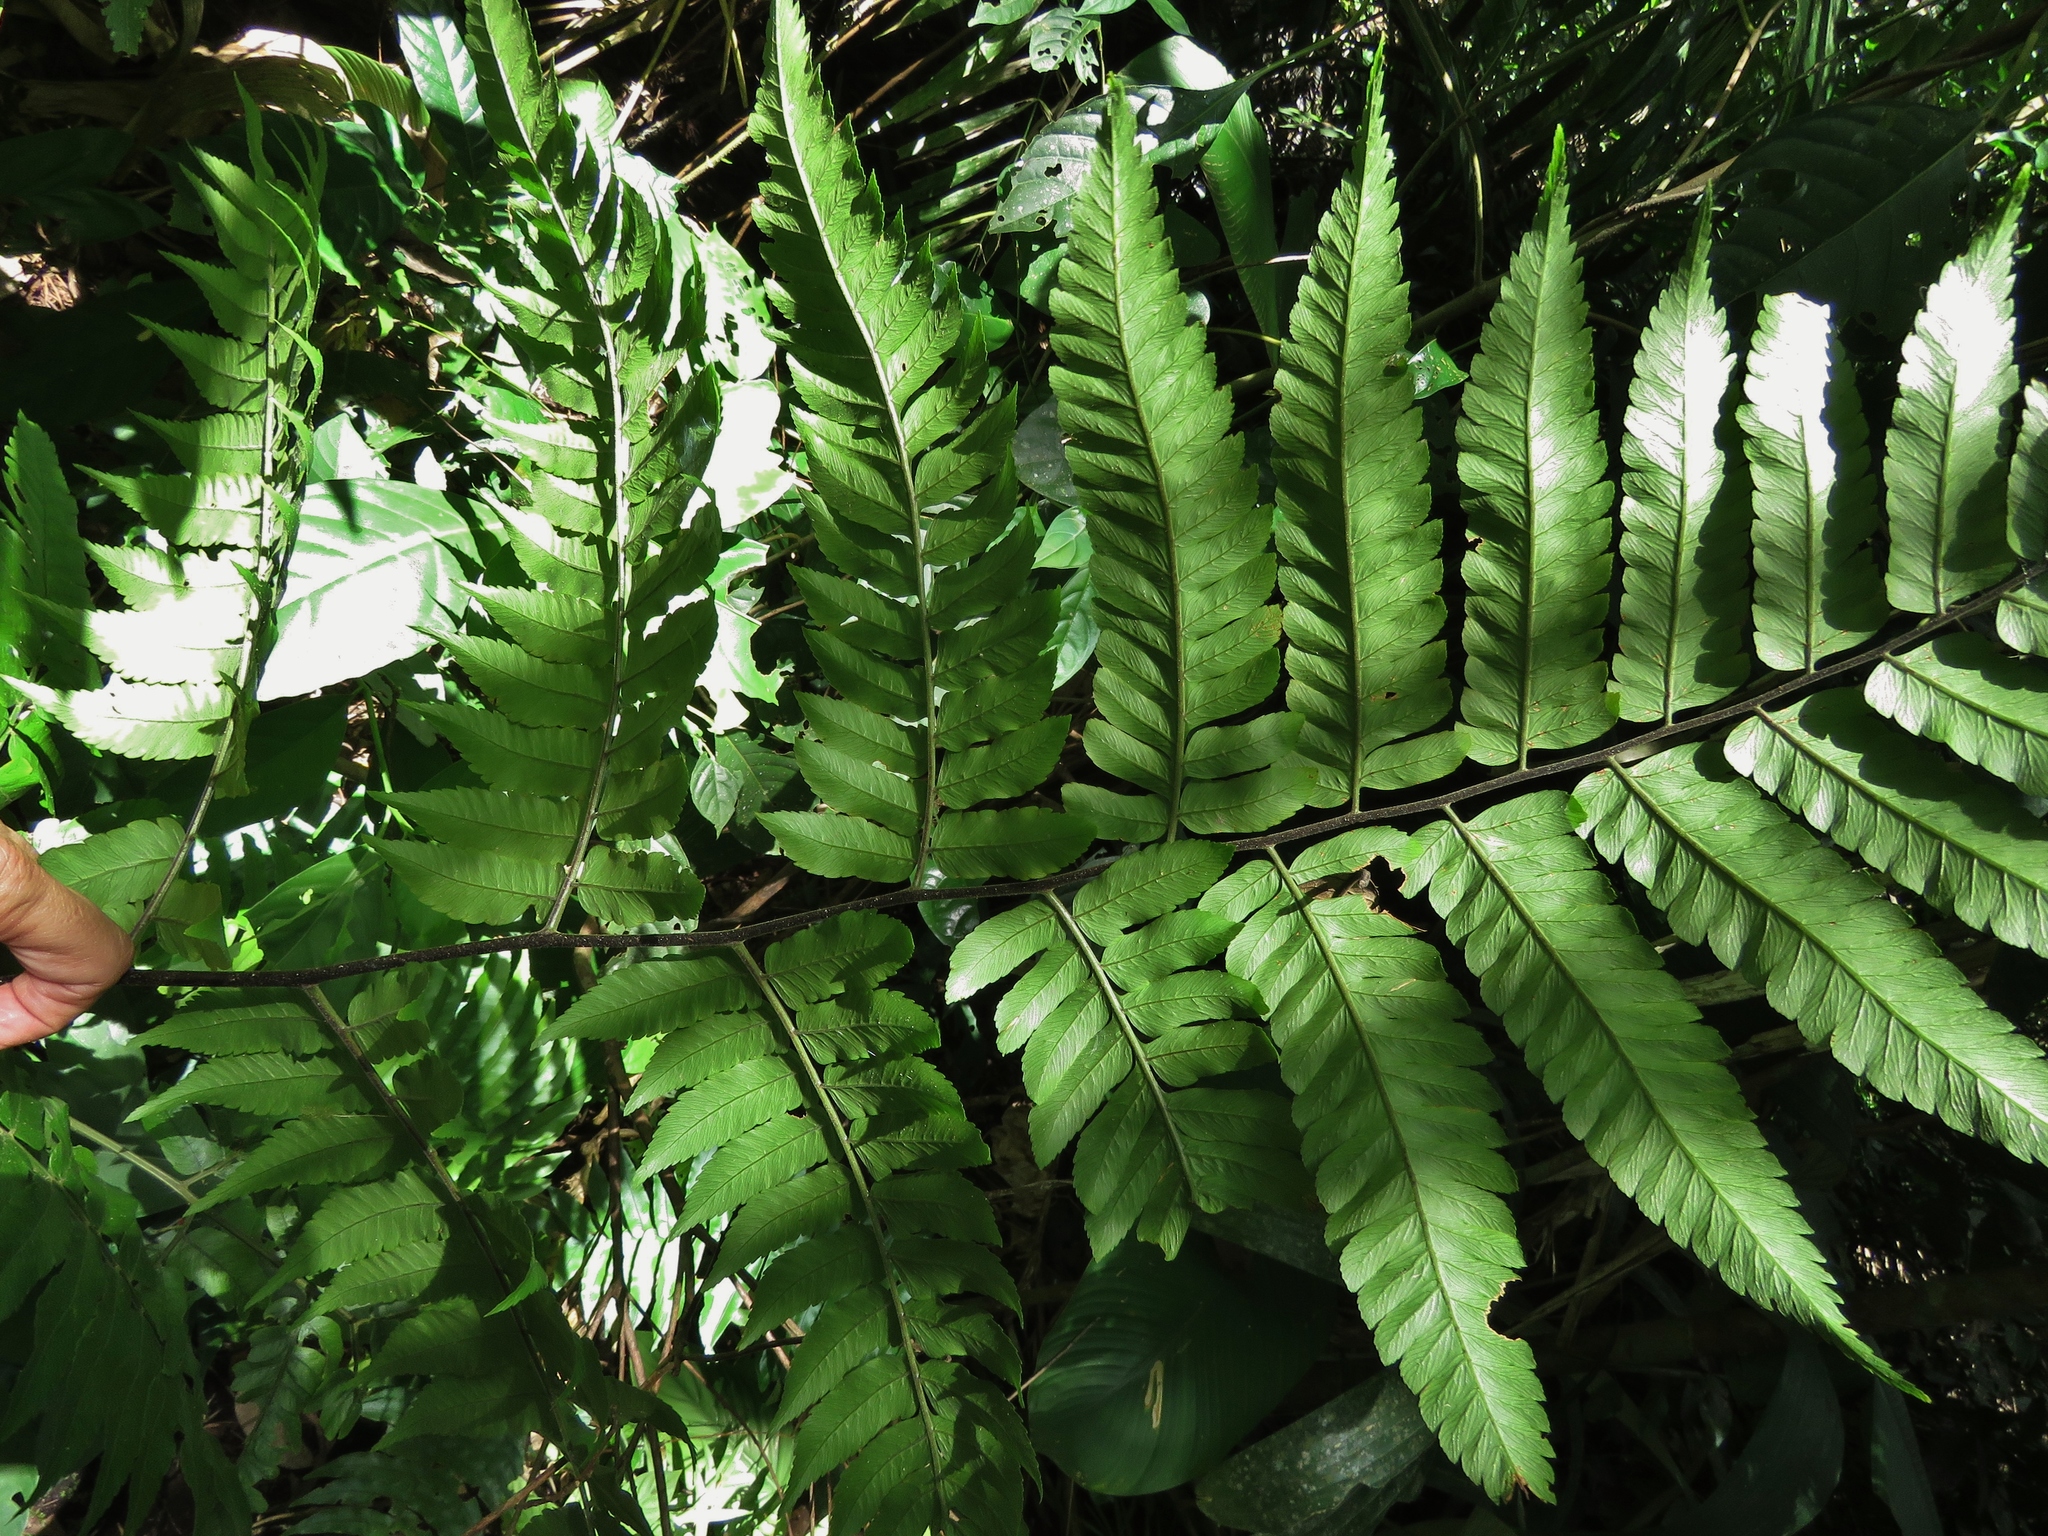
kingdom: Plantae
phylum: Tracheophyta
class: Polypodiopsida
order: Polypodiales
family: Dryopteridaceae
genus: Polybotrya
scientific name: Polybotrya caudata
